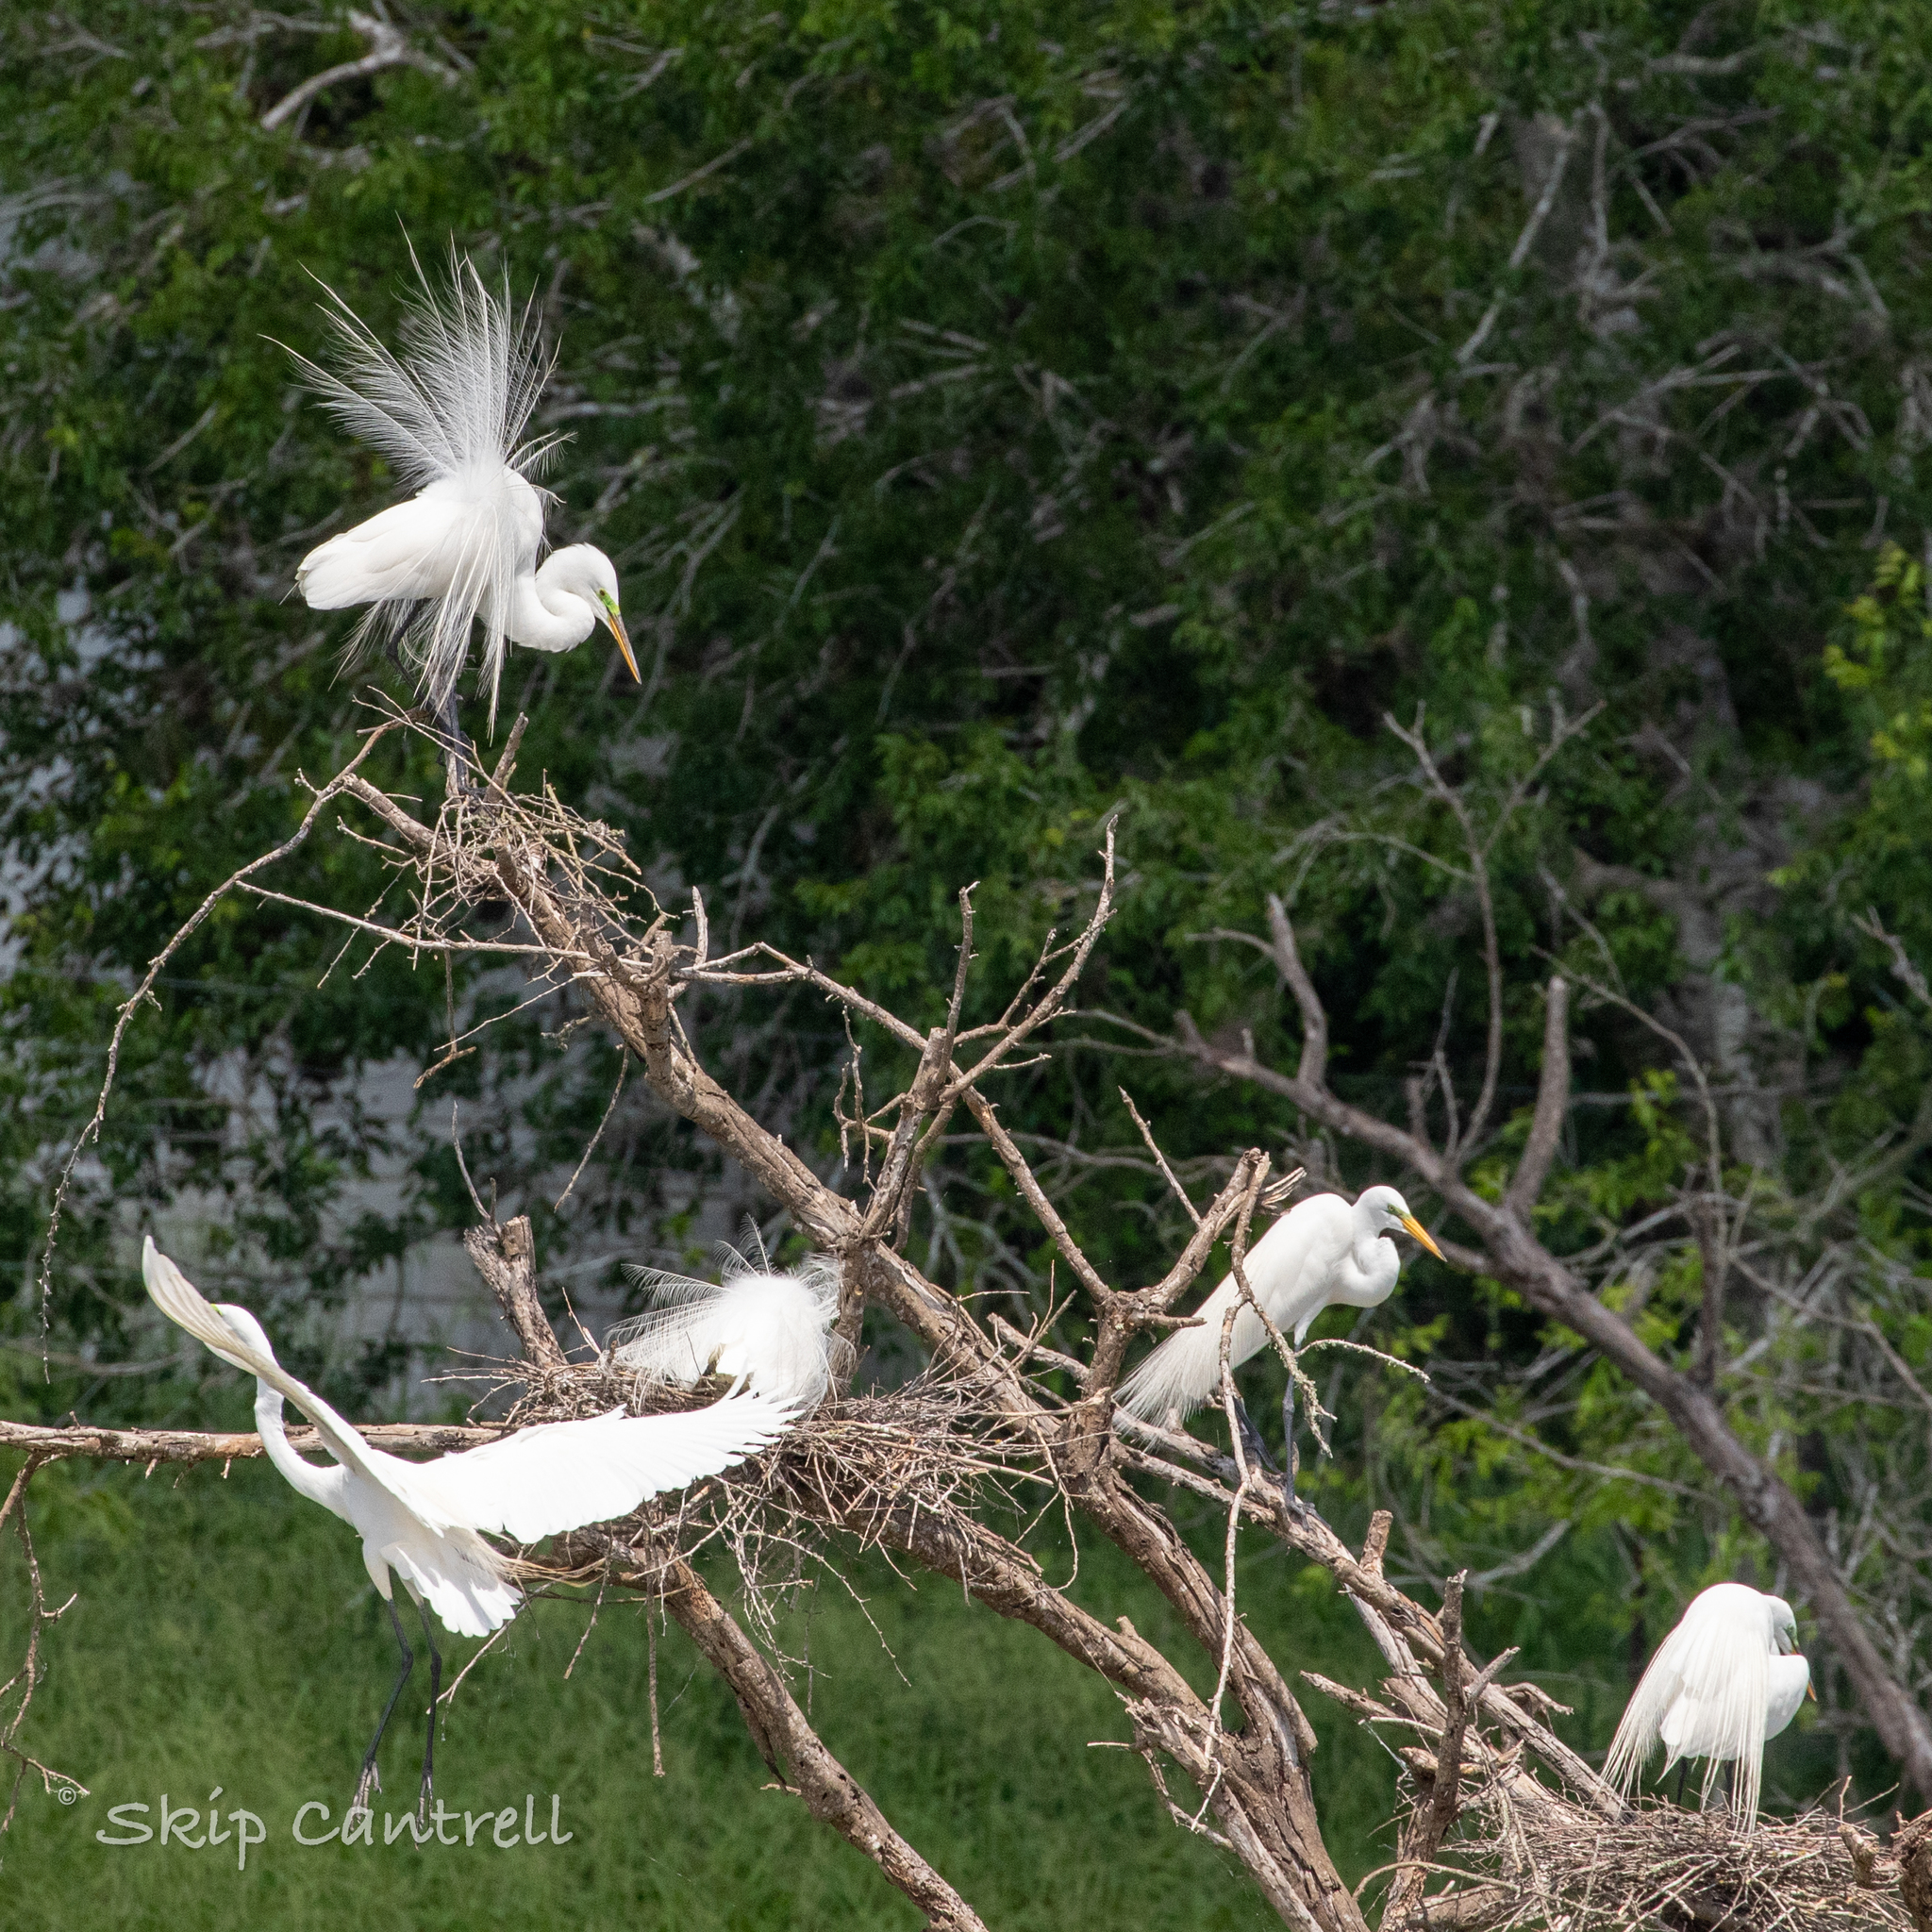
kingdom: Animalia
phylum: Chordata
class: Aves
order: Pelecaniformes
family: Ardeidae
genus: Ardea
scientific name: Ardea alba
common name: Great egret
